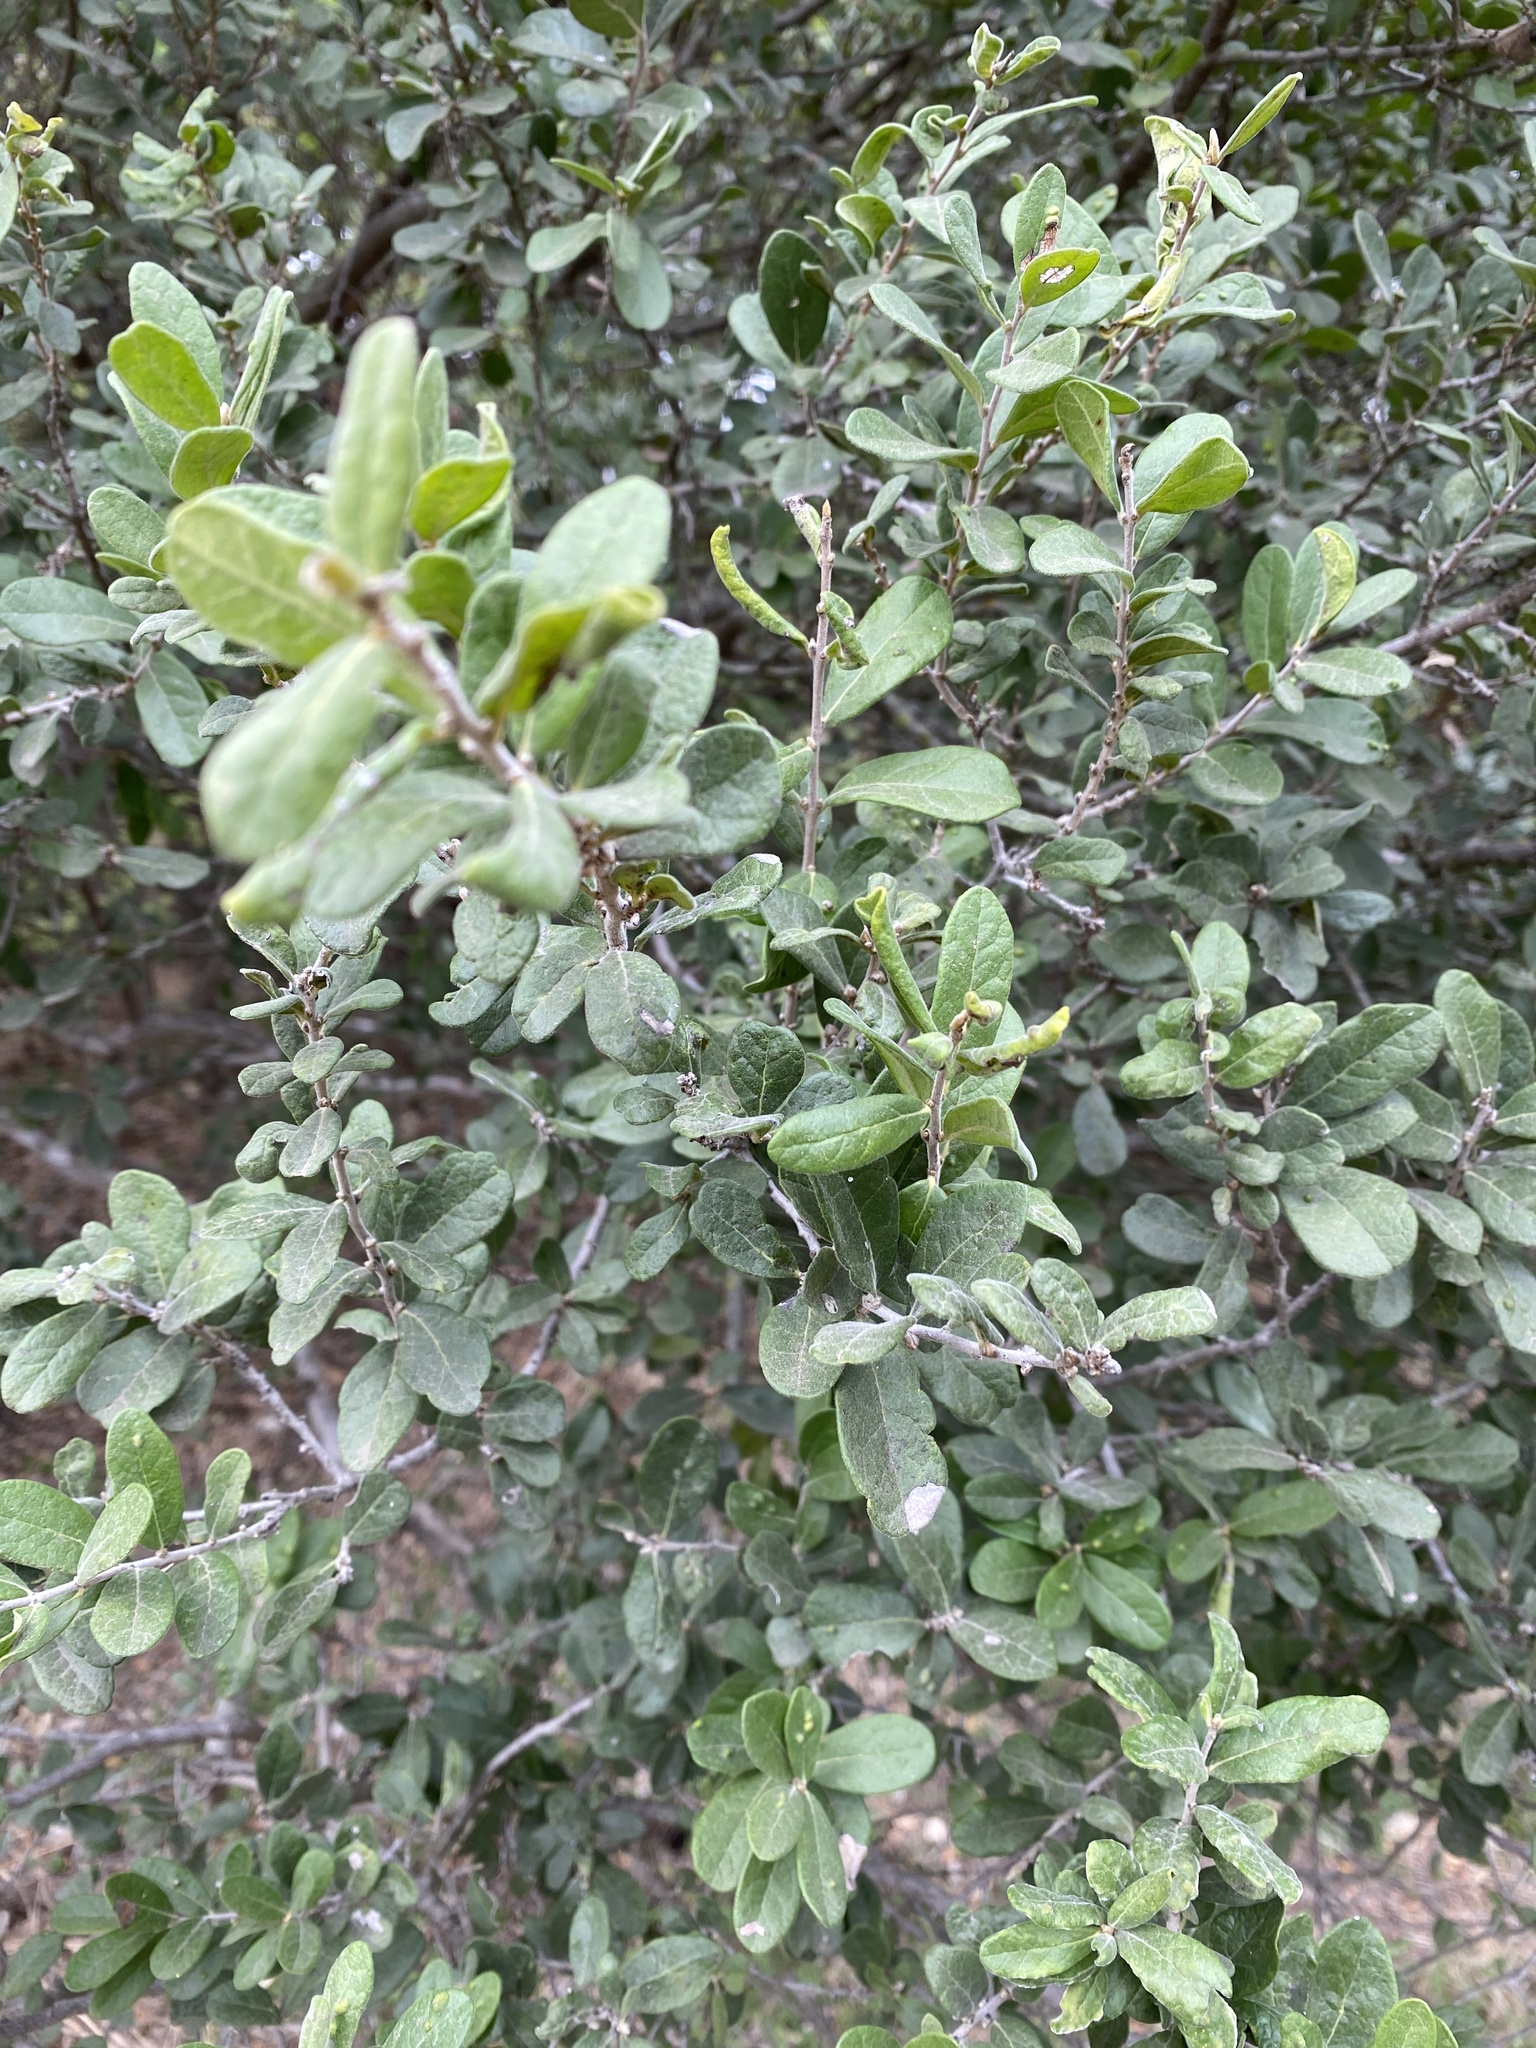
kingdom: Plantae
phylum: Tracheophyta
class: Magnoliopsida
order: Ericales
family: Ebenaceae
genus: Diospyros
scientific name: Diospyros texana
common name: Texas persimmon
